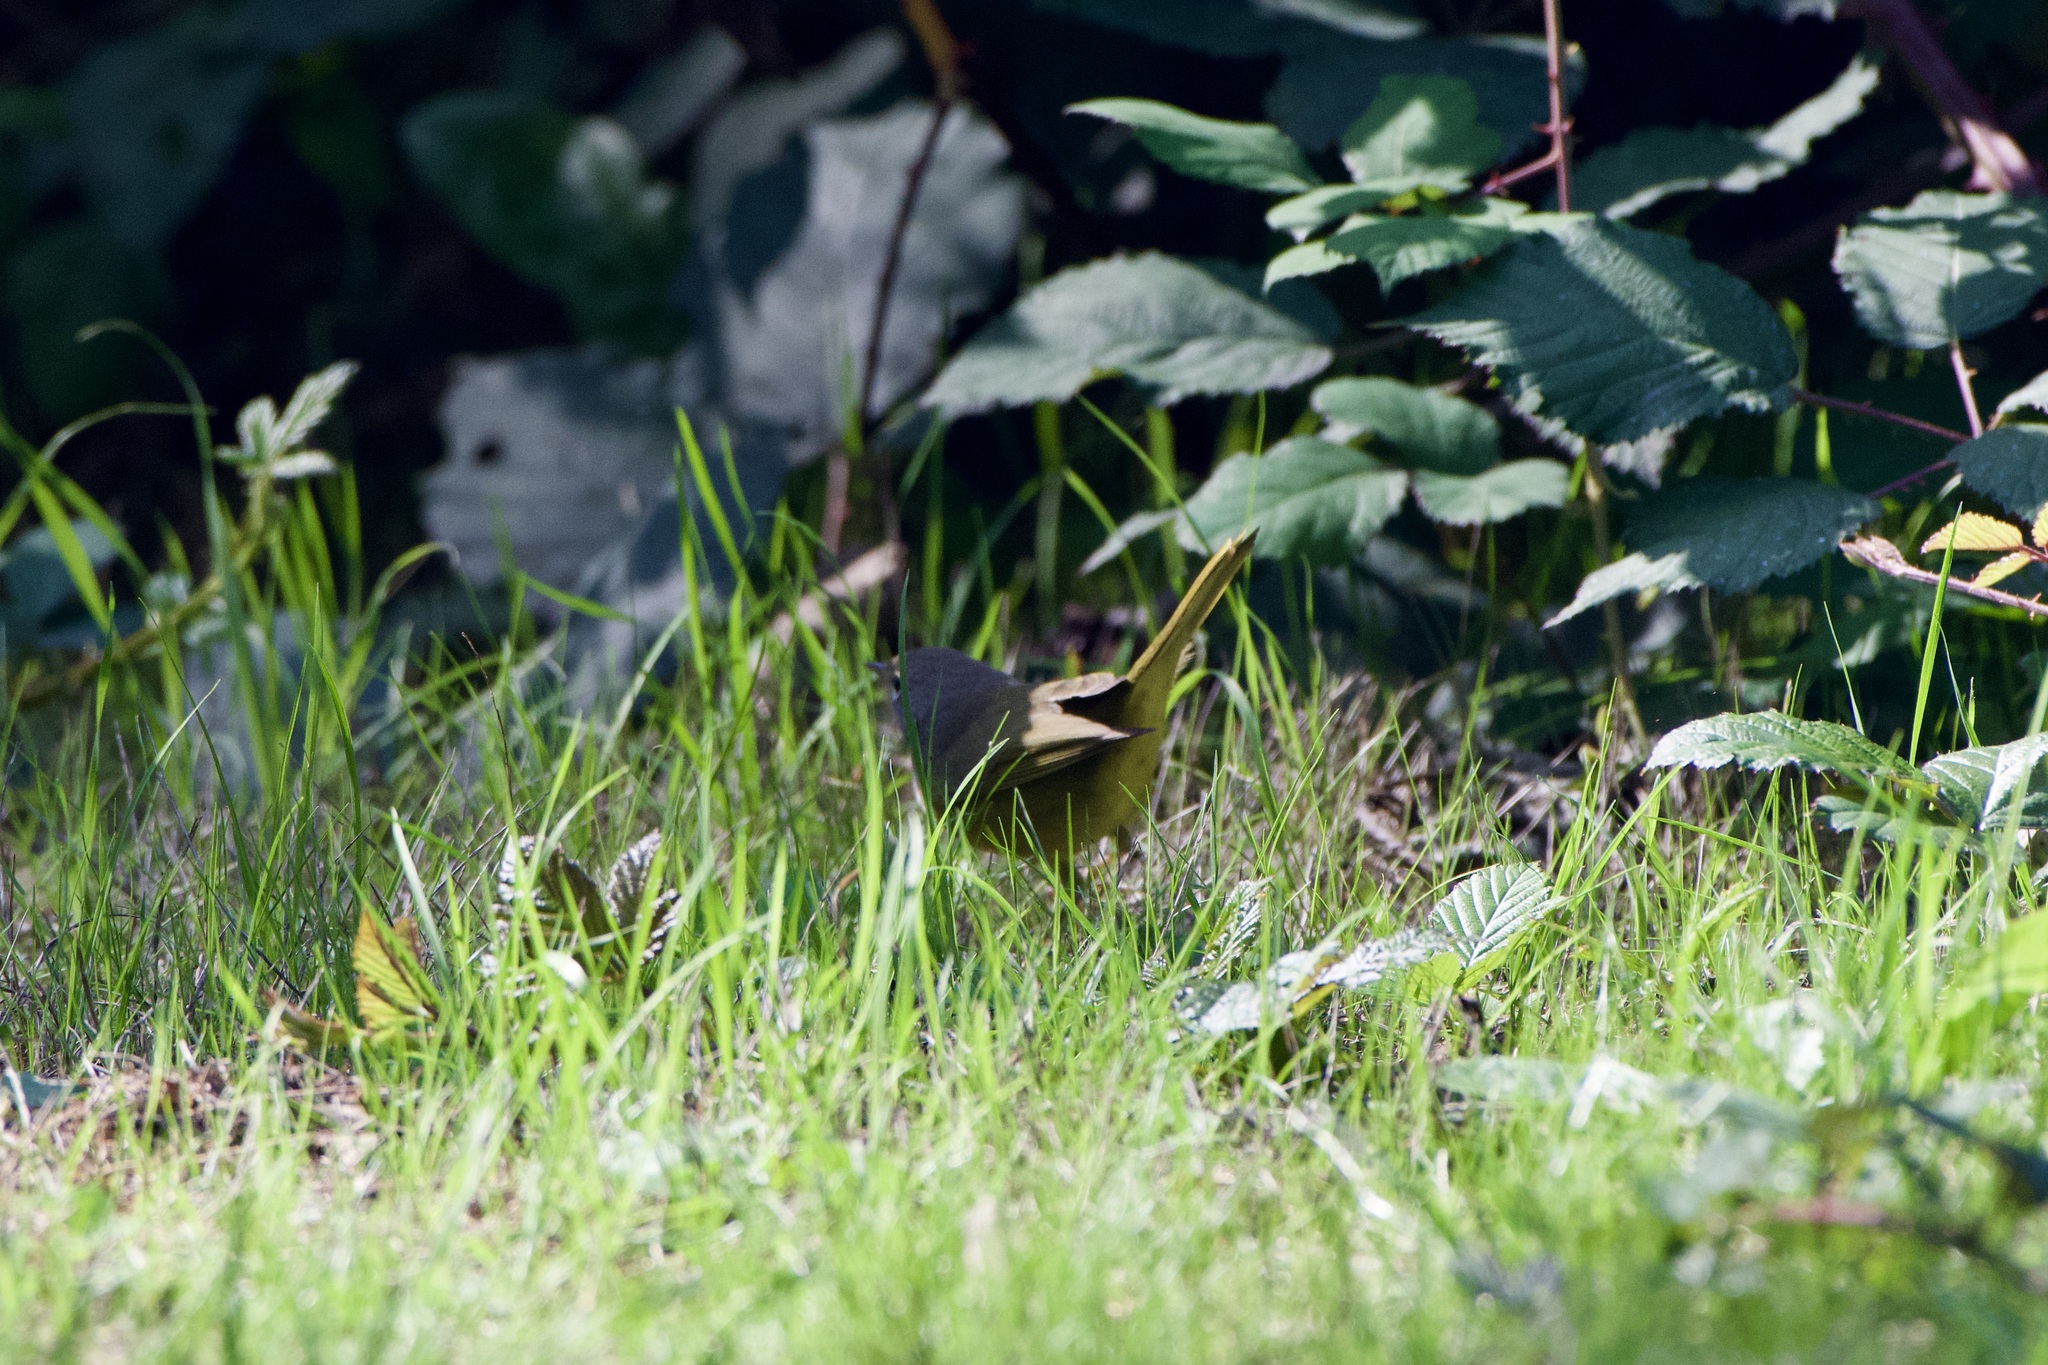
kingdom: Animalia
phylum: Chordata
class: Aves
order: Passeriformes
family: Parulidae
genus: Geothlypis
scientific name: Geothlypis tolmiei
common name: Macgillivray's warbler
